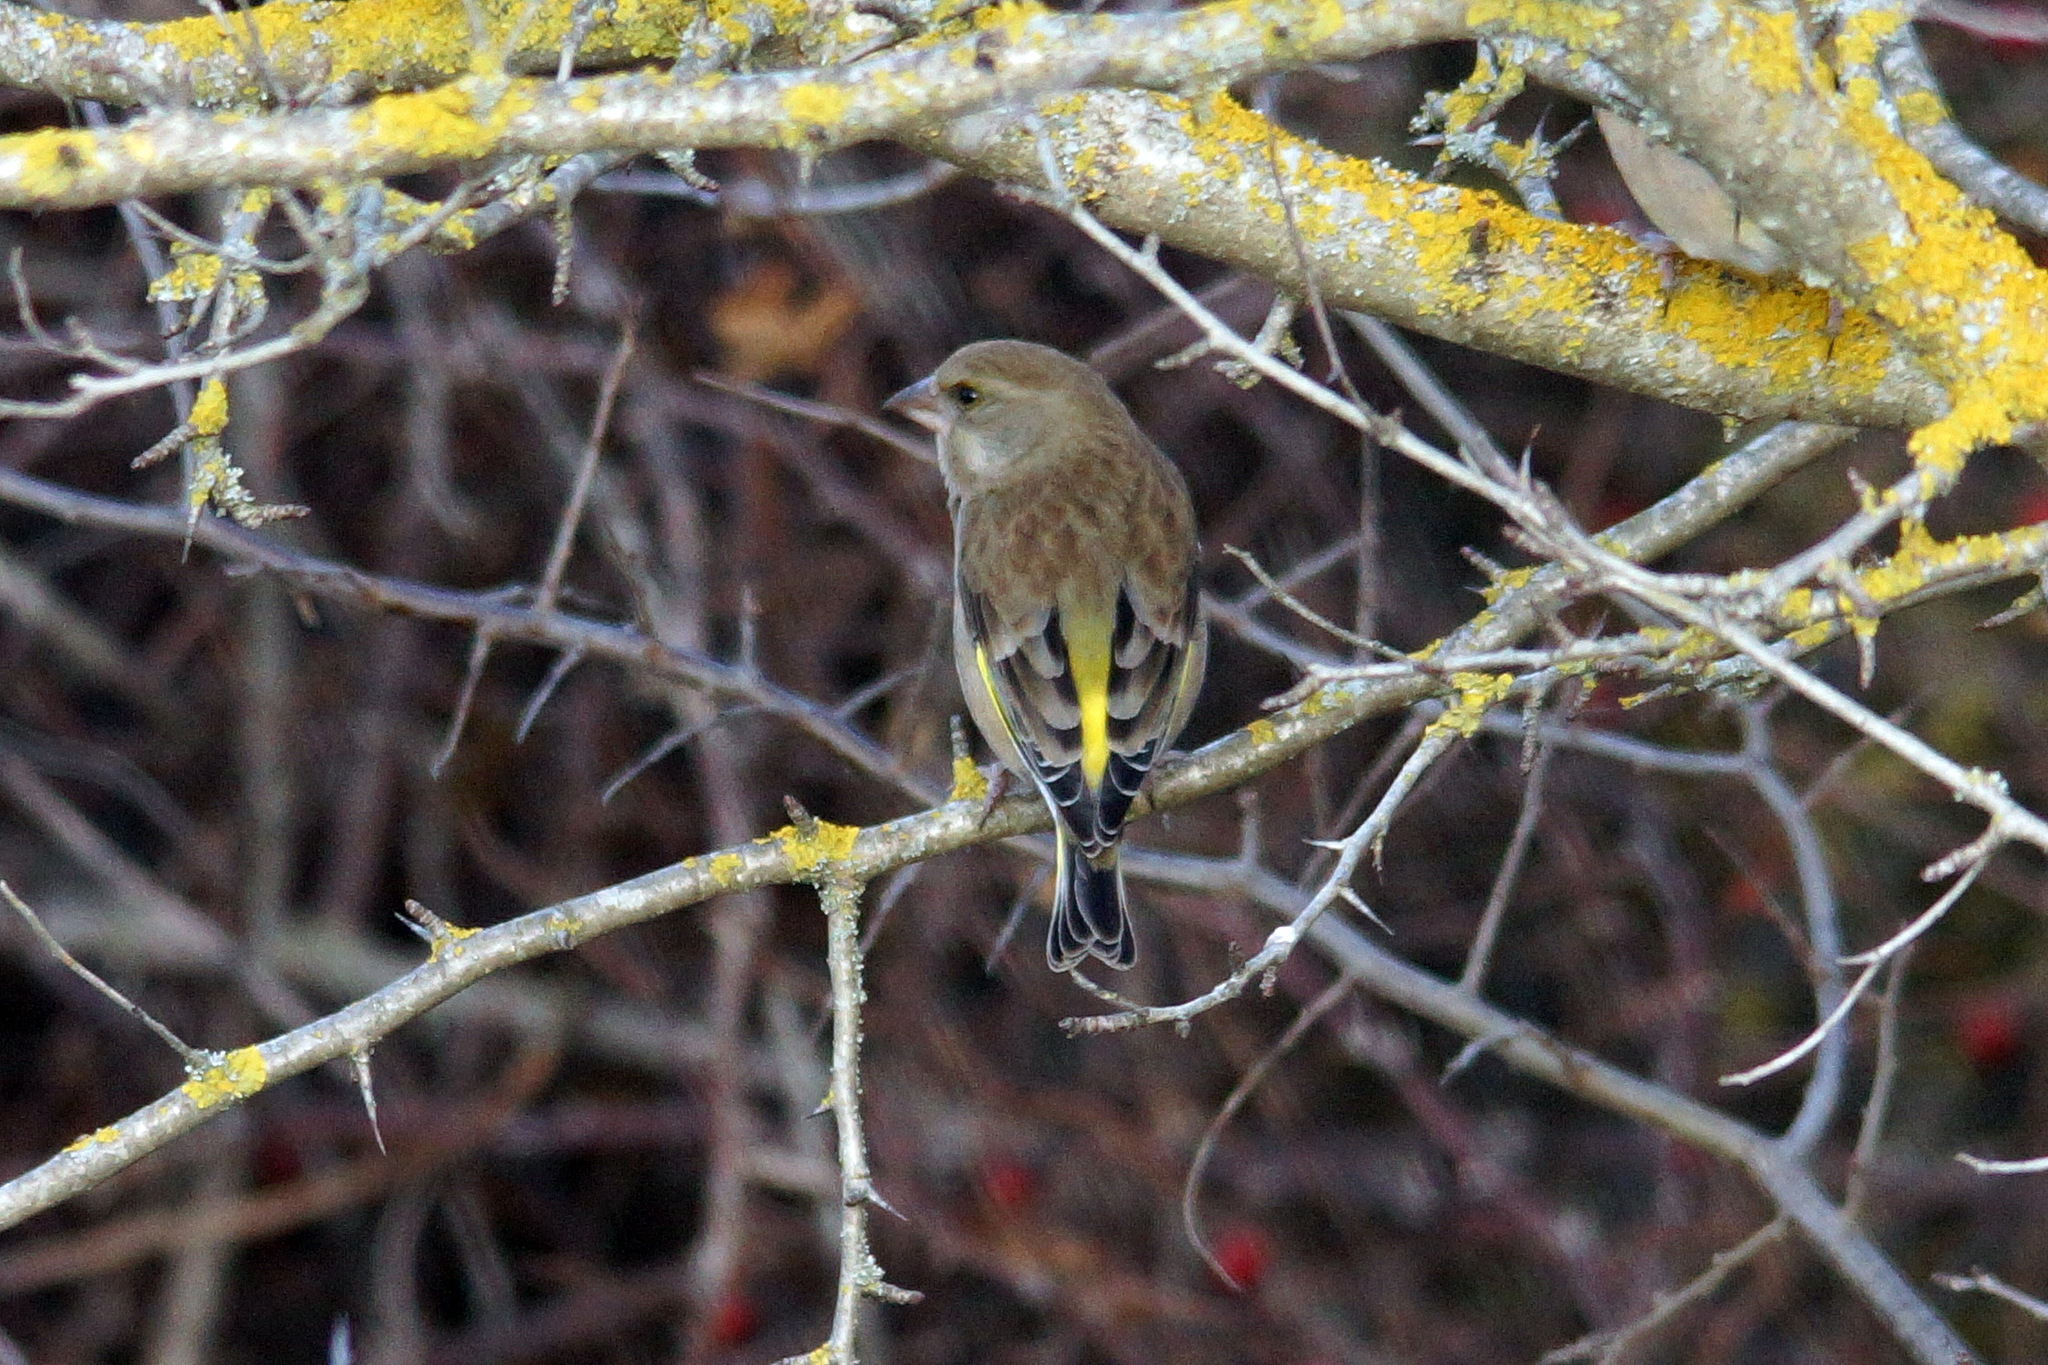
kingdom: Plantae
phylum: Tracheophyta
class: Liliopsida
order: Poales
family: Poaceae
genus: Chloris
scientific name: Chloris chloris
